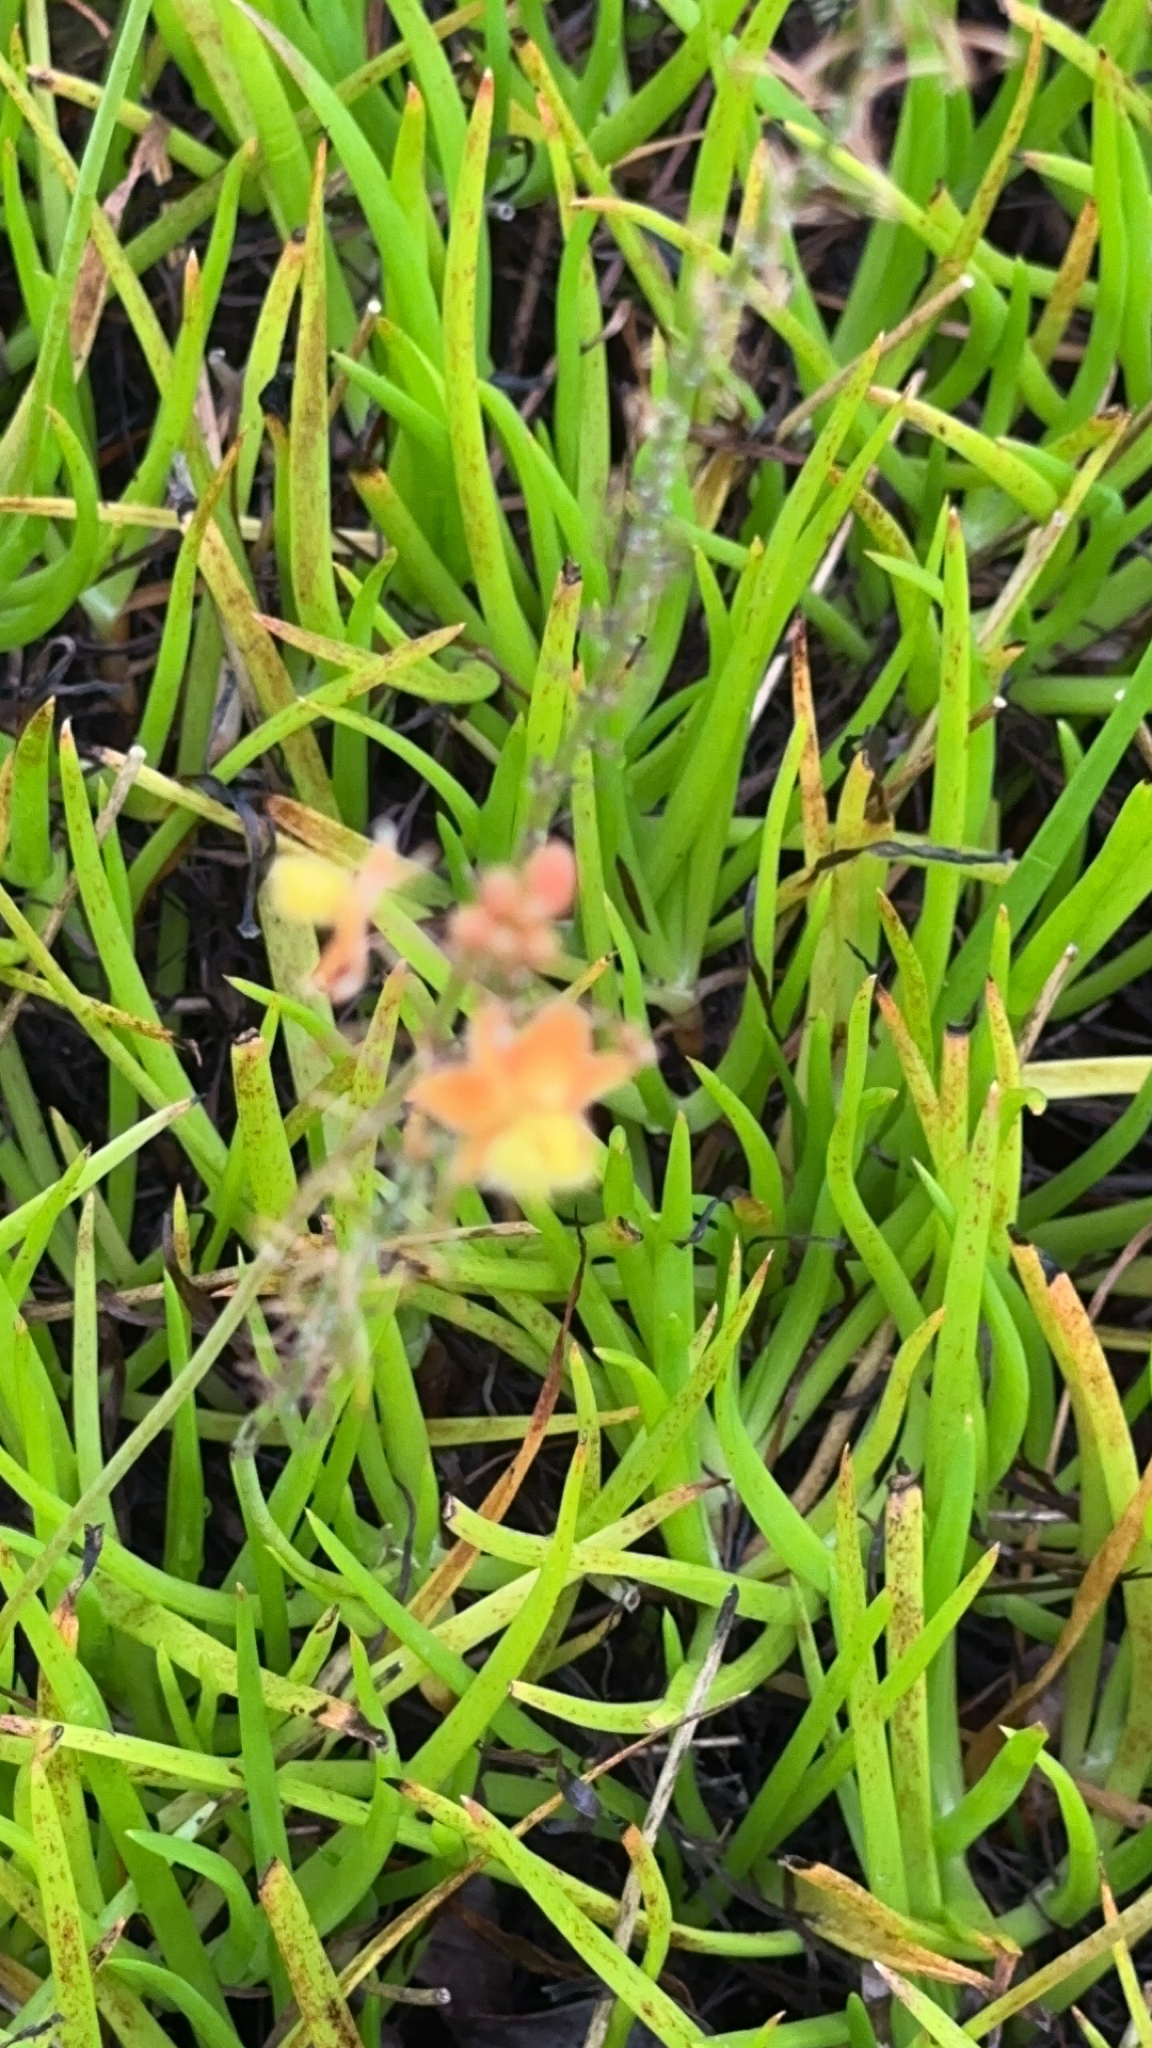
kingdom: Plantae
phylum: Tracheophyta
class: Liliopsida
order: Asparagales
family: Asphodelaceae
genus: Bulbine
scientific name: Bulbine frutescens
